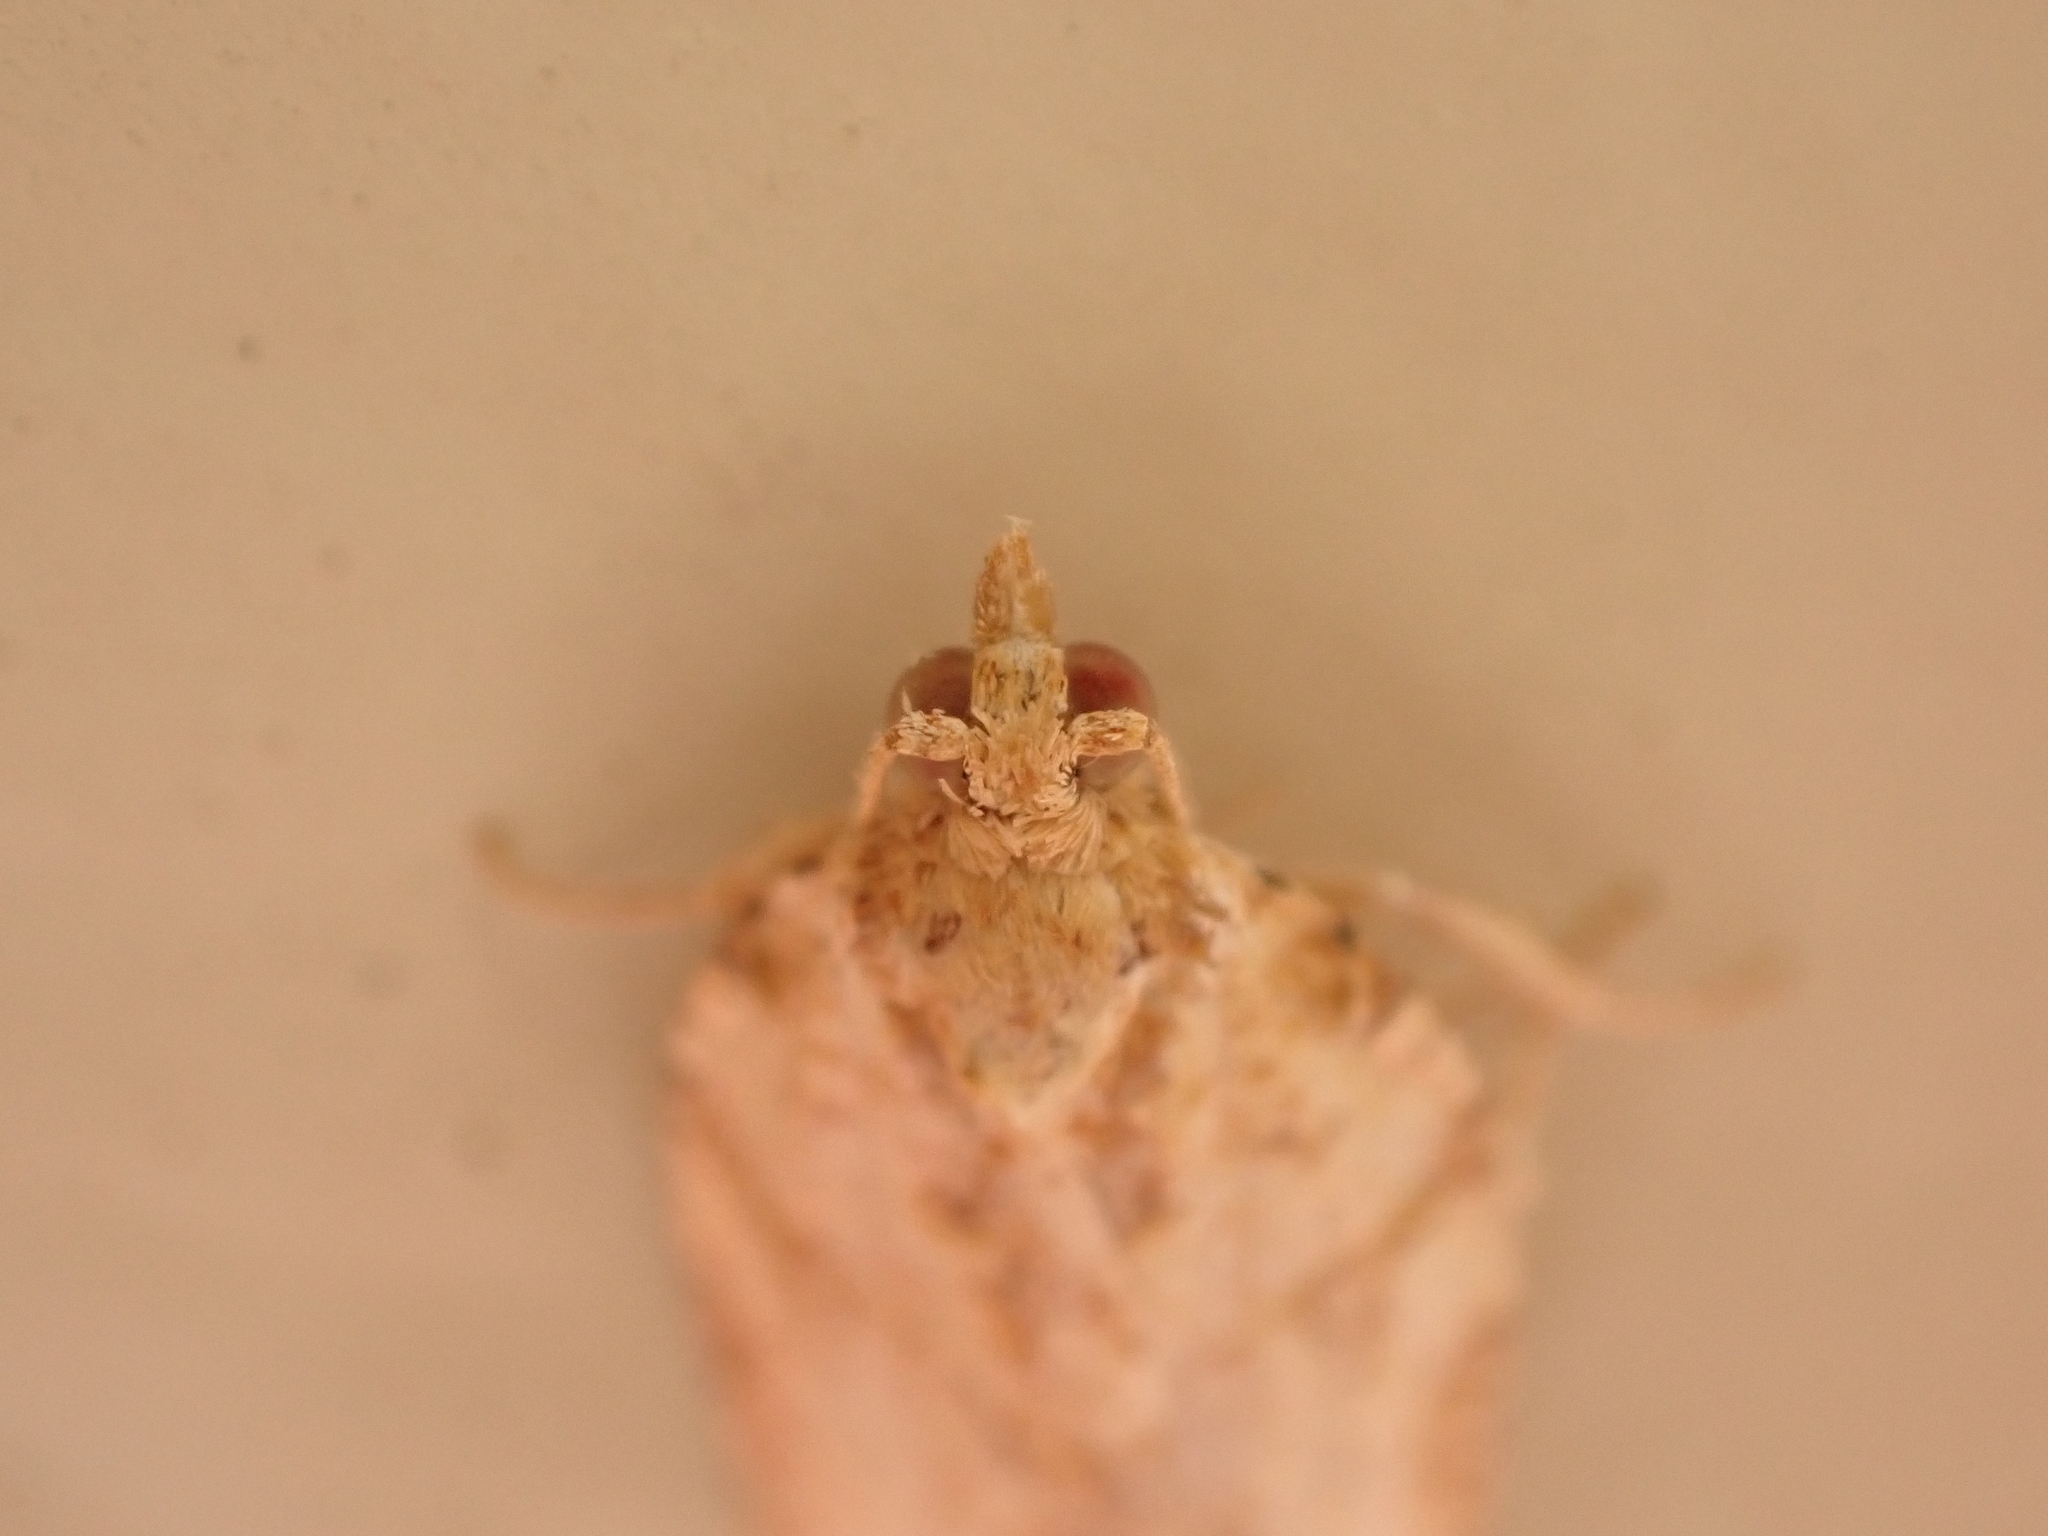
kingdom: Animalia
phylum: Arthropoda
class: Insecta
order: Lepidoptera
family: Tortricidae
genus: Epiphyas
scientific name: Epiphyas postvittana
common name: Light brown apple moth
